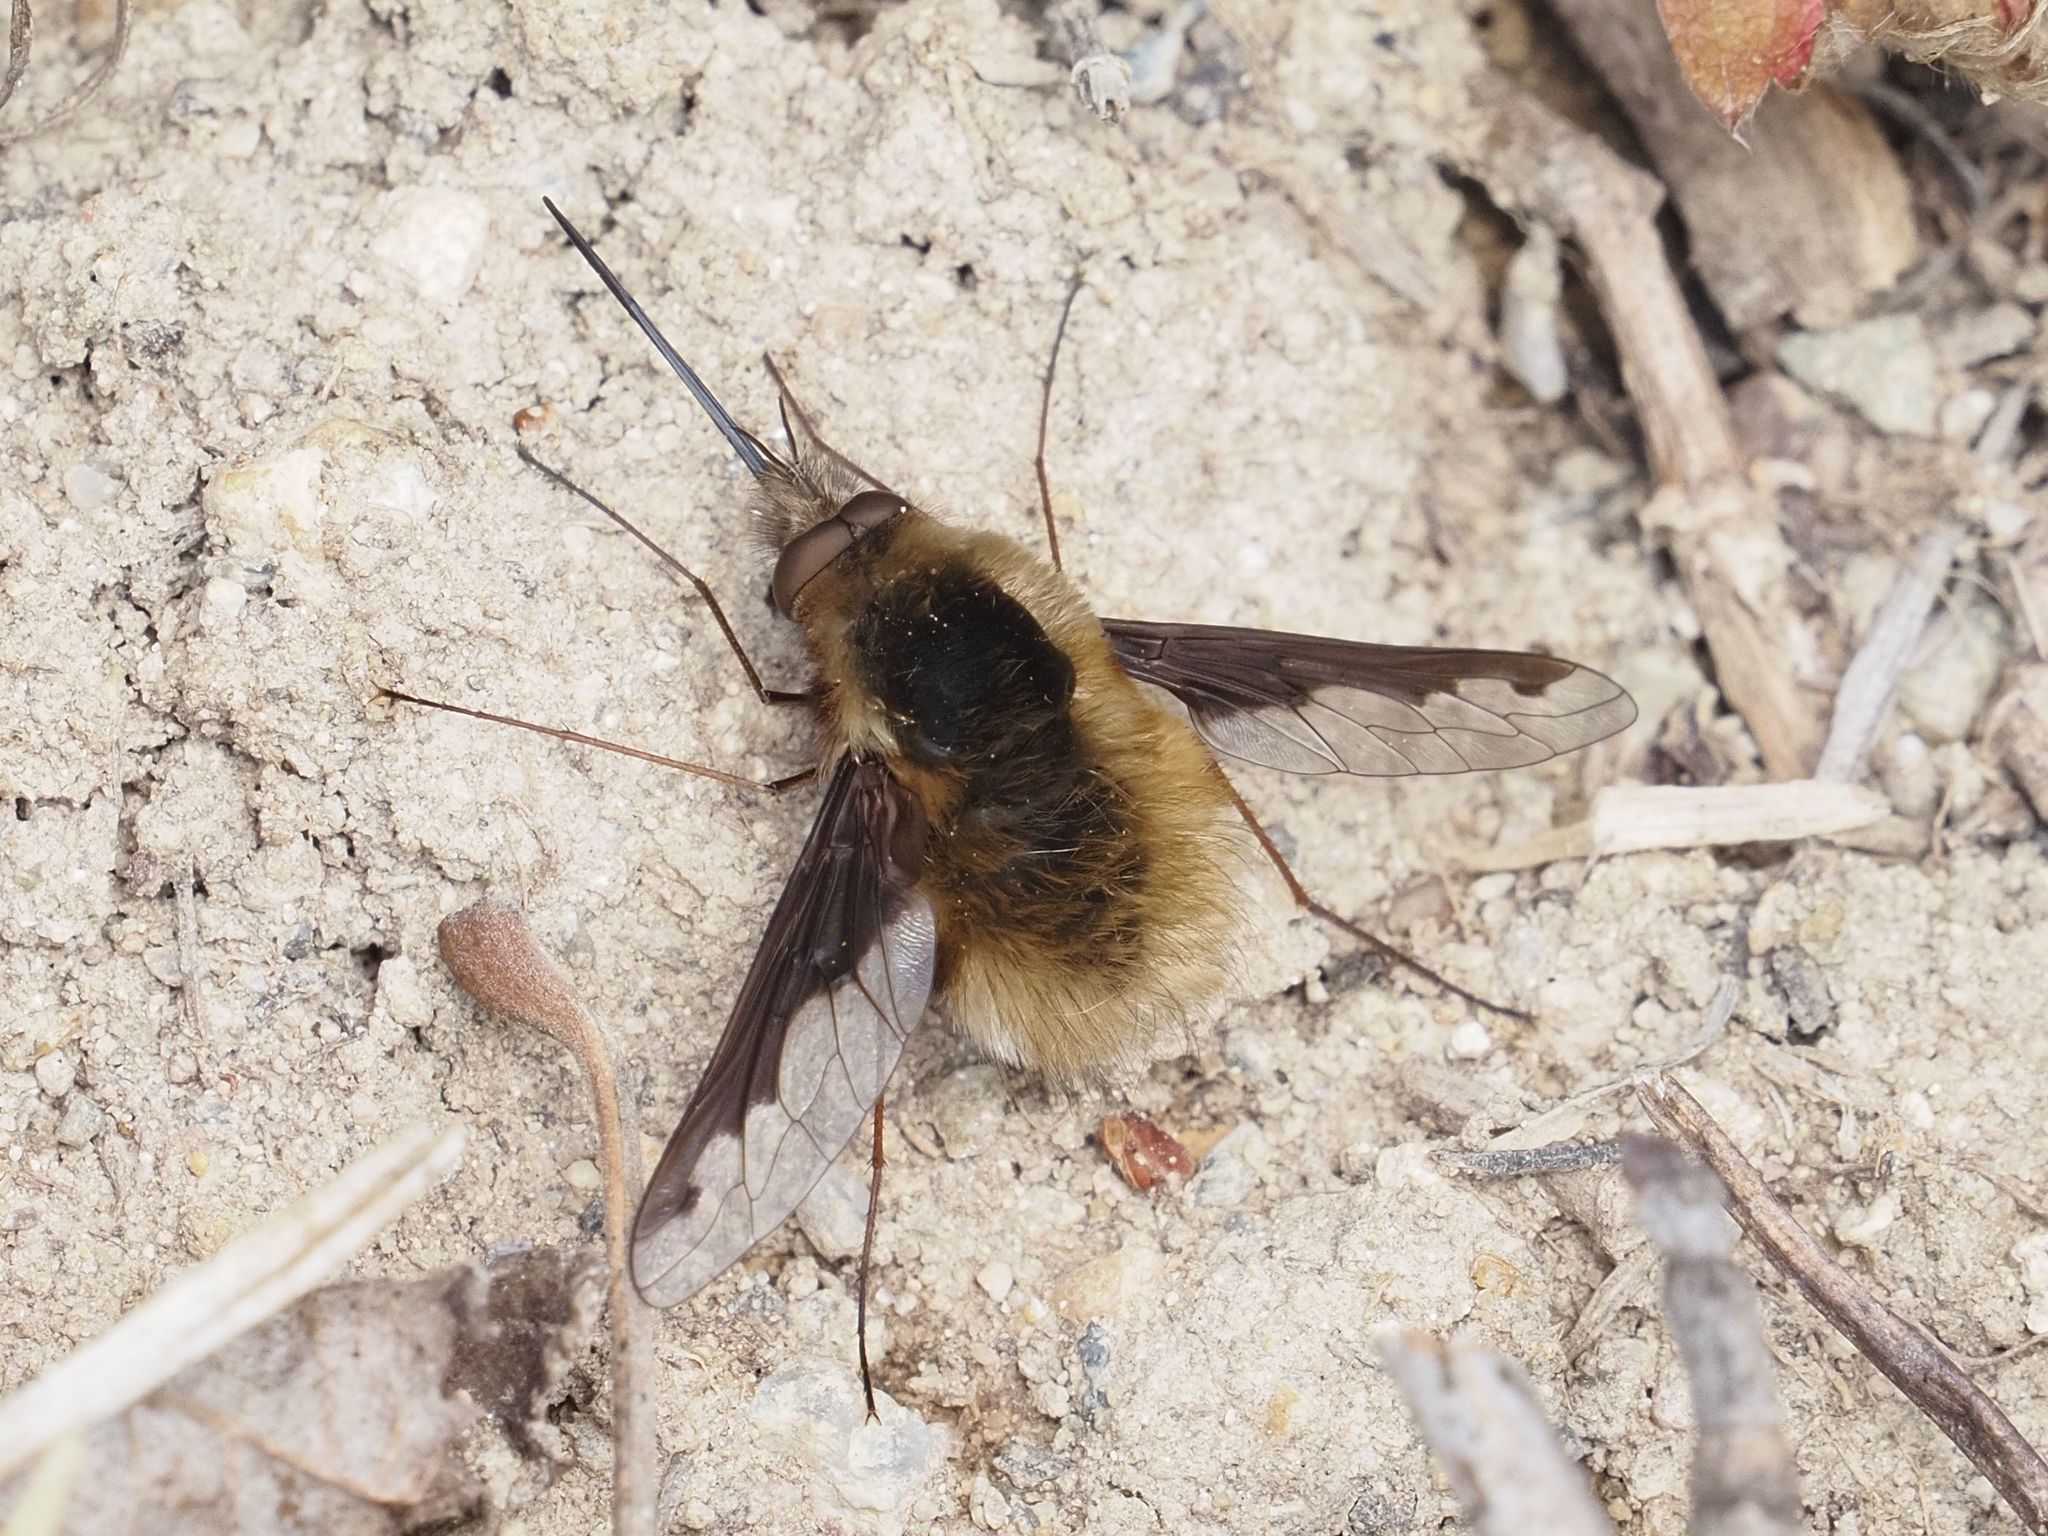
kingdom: Animalia
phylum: Arthropoda
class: Insecta
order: Diptera
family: Bombyliidae
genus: Bombylius
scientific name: Bombylius major
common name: Bee fly
